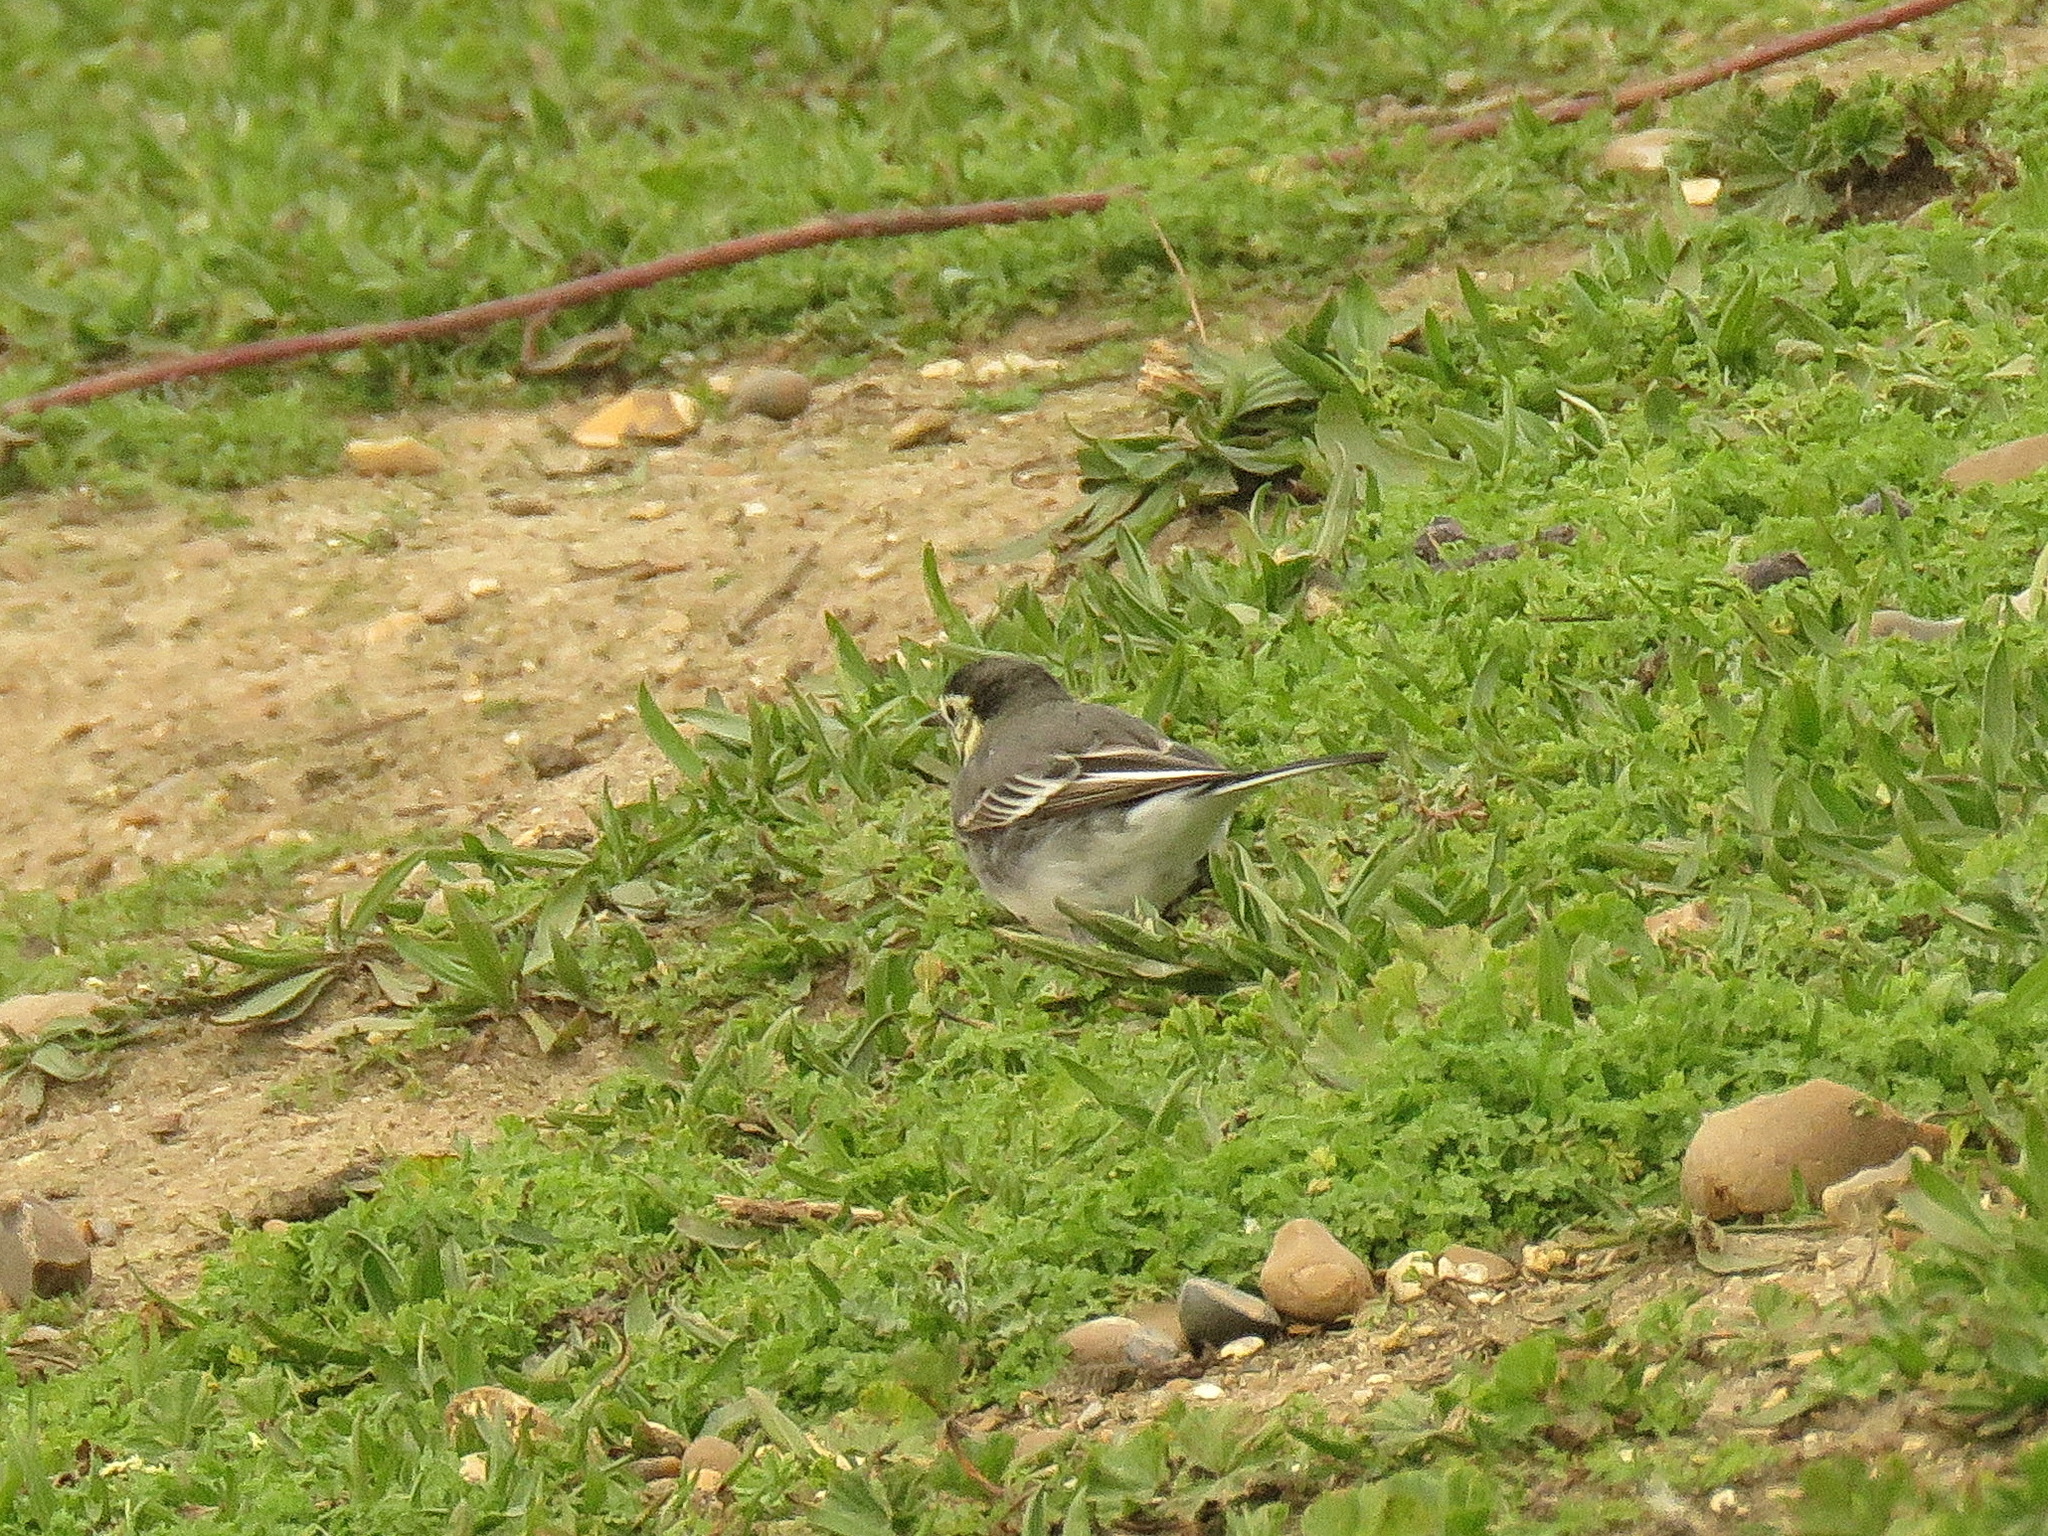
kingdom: Animalia
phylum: Chordata
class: Aves
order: Passeriformes
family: Motacillidae
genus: Motacilla
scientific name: Motacilla alba
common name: White wagtail
